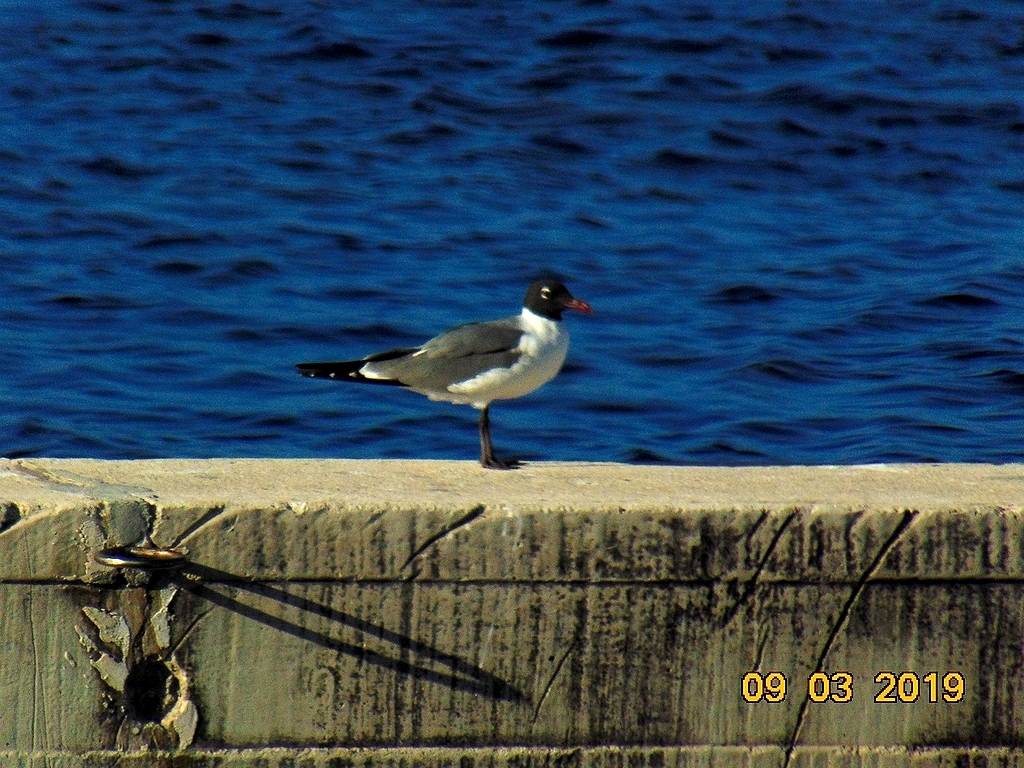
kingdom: Animalia
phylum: Chordata
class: Aves
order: Charadriiformes
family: Laridae
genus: Leucophaeus
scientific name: Leucophaeus atricilla
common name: Laughing gull
